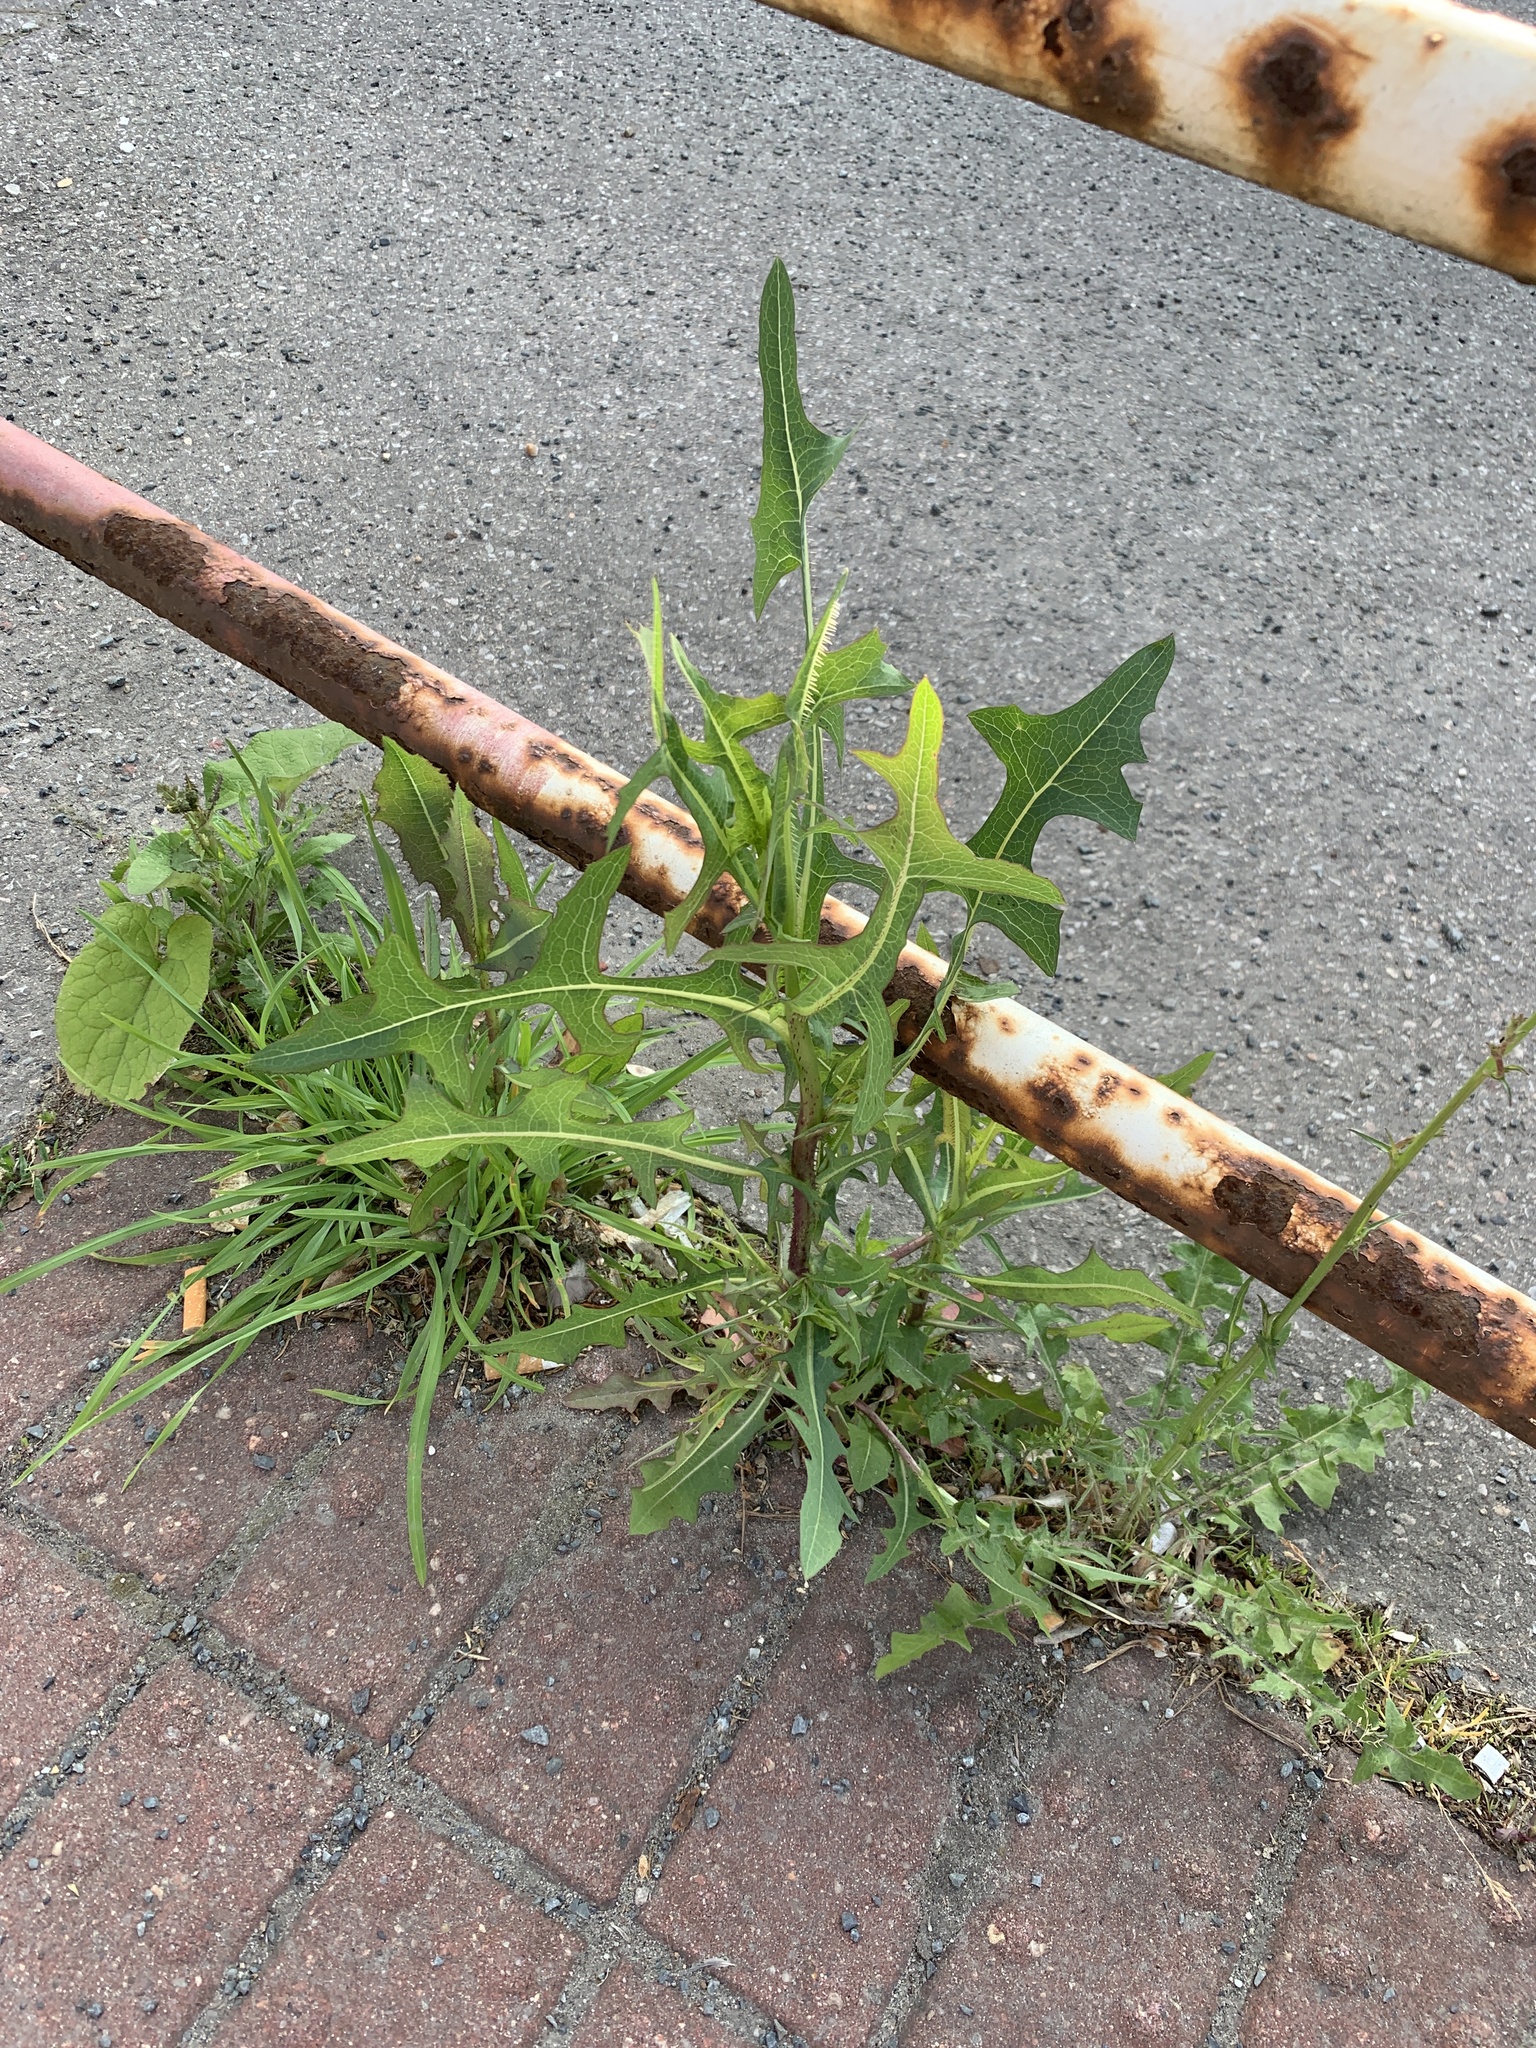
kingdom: Plantae
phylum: Tracheophyta
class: Magnoliopsida
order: Asterales
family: Asteraceae
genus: Lactuca
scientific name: Lactuca serriola
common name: Prickly lettuce
